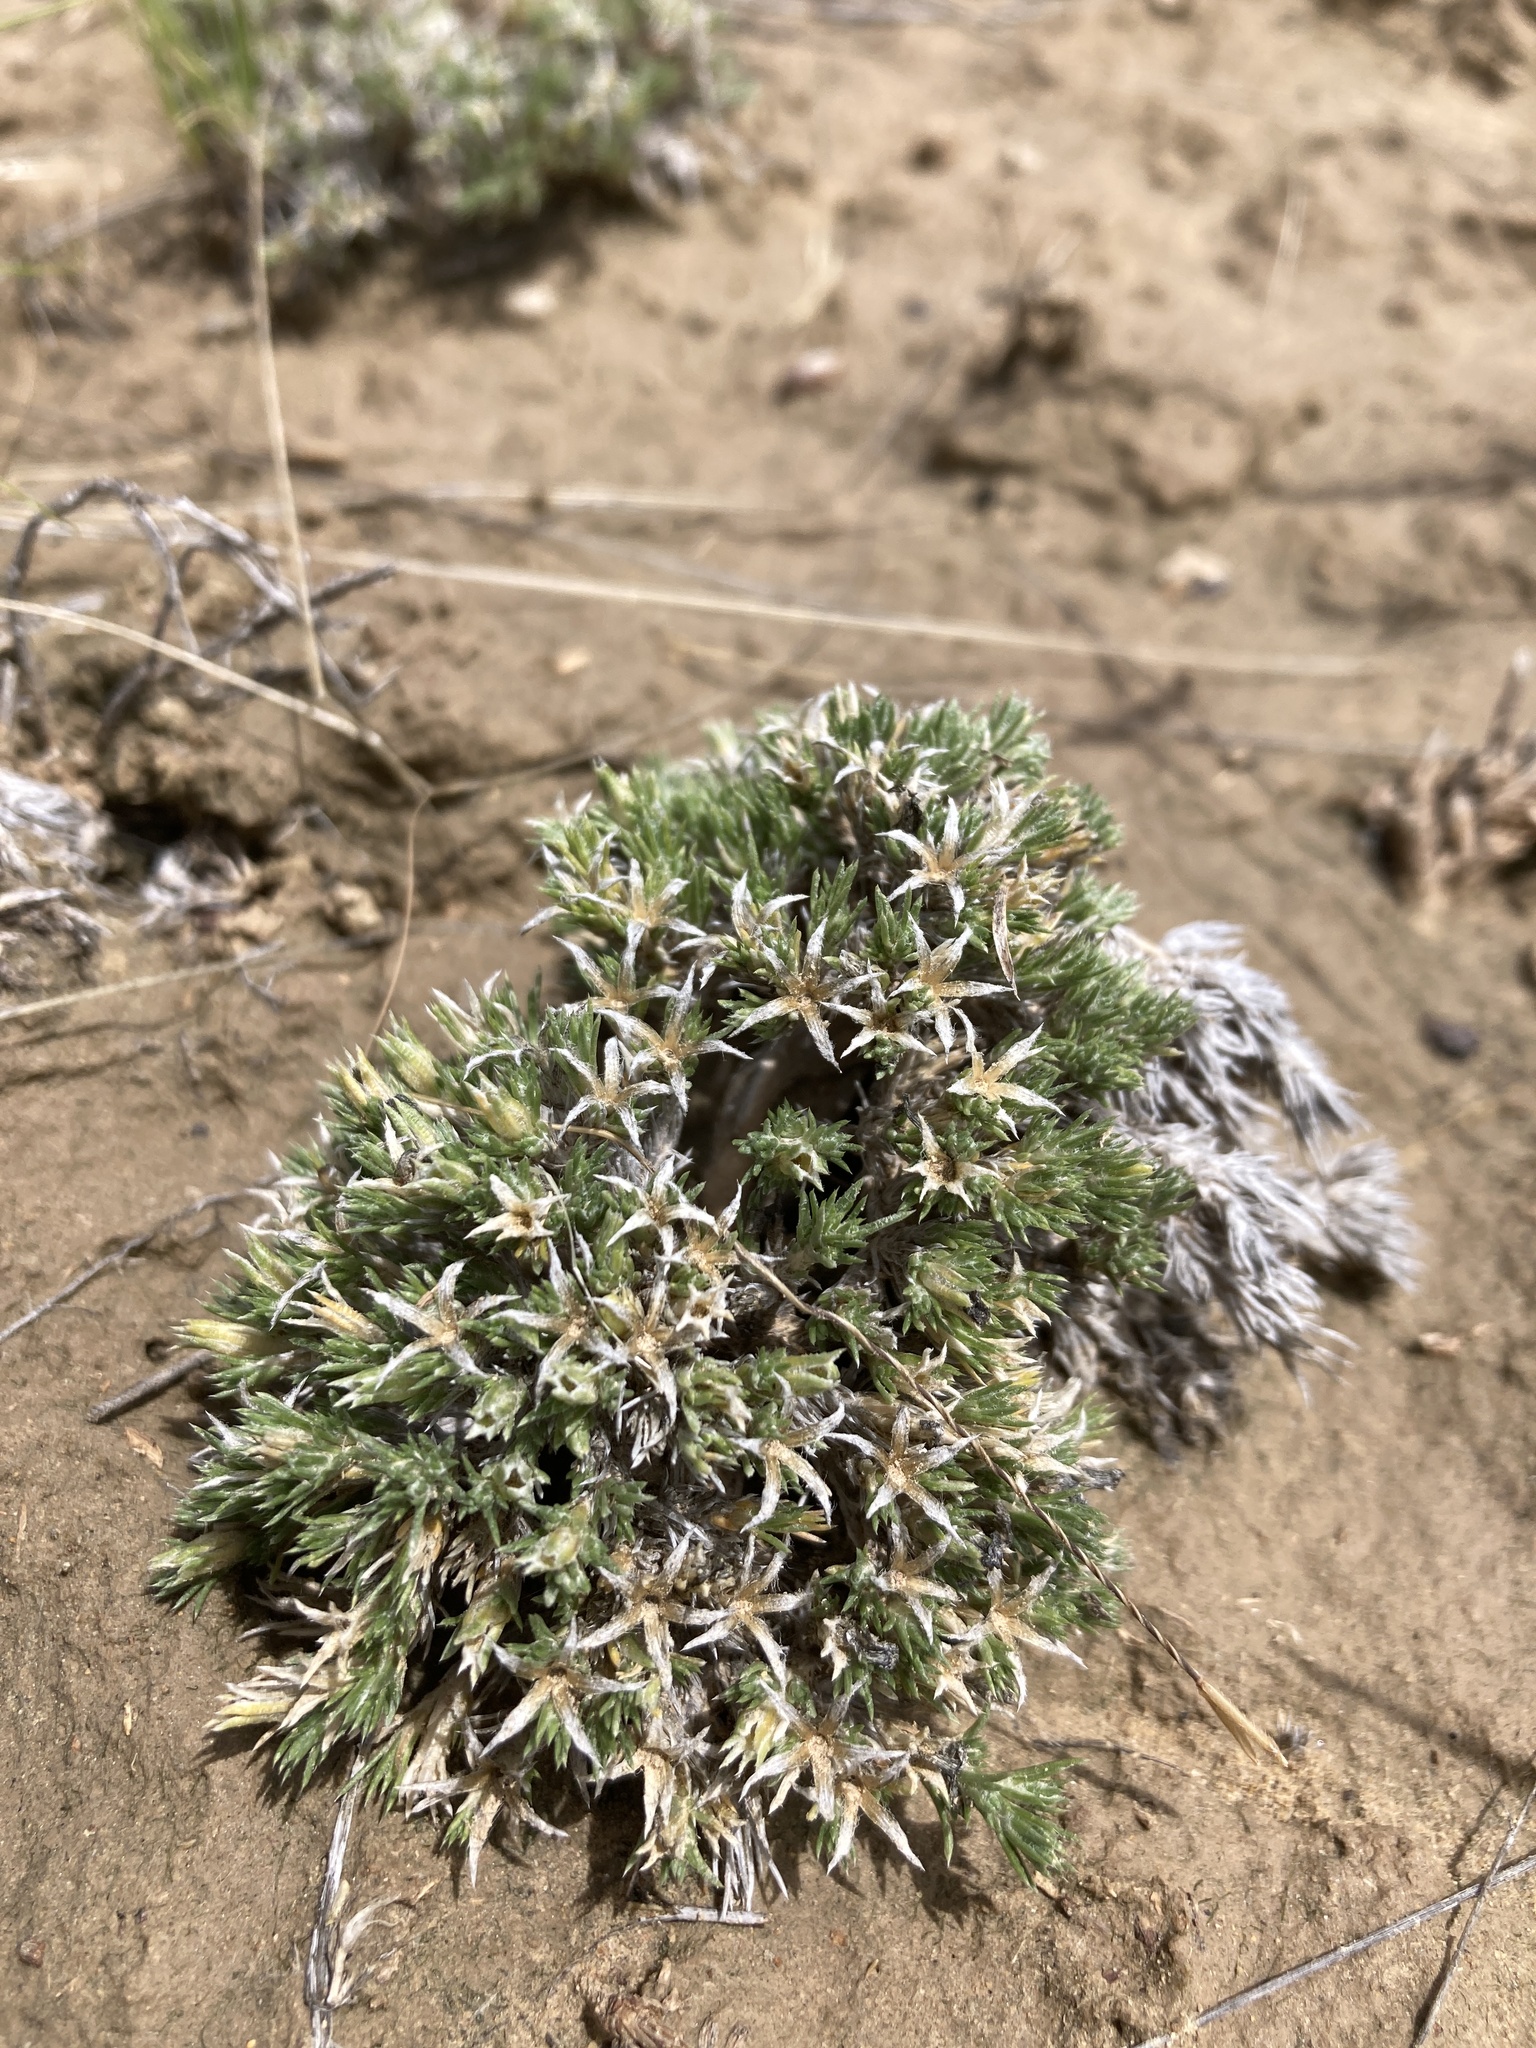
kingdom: Plantae
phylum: Tracheophyta
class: Magnoliopsida
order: Ericales
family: Polemoniaceae
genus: Phlox
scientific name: Phlox hoodii
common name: Moss phlox
